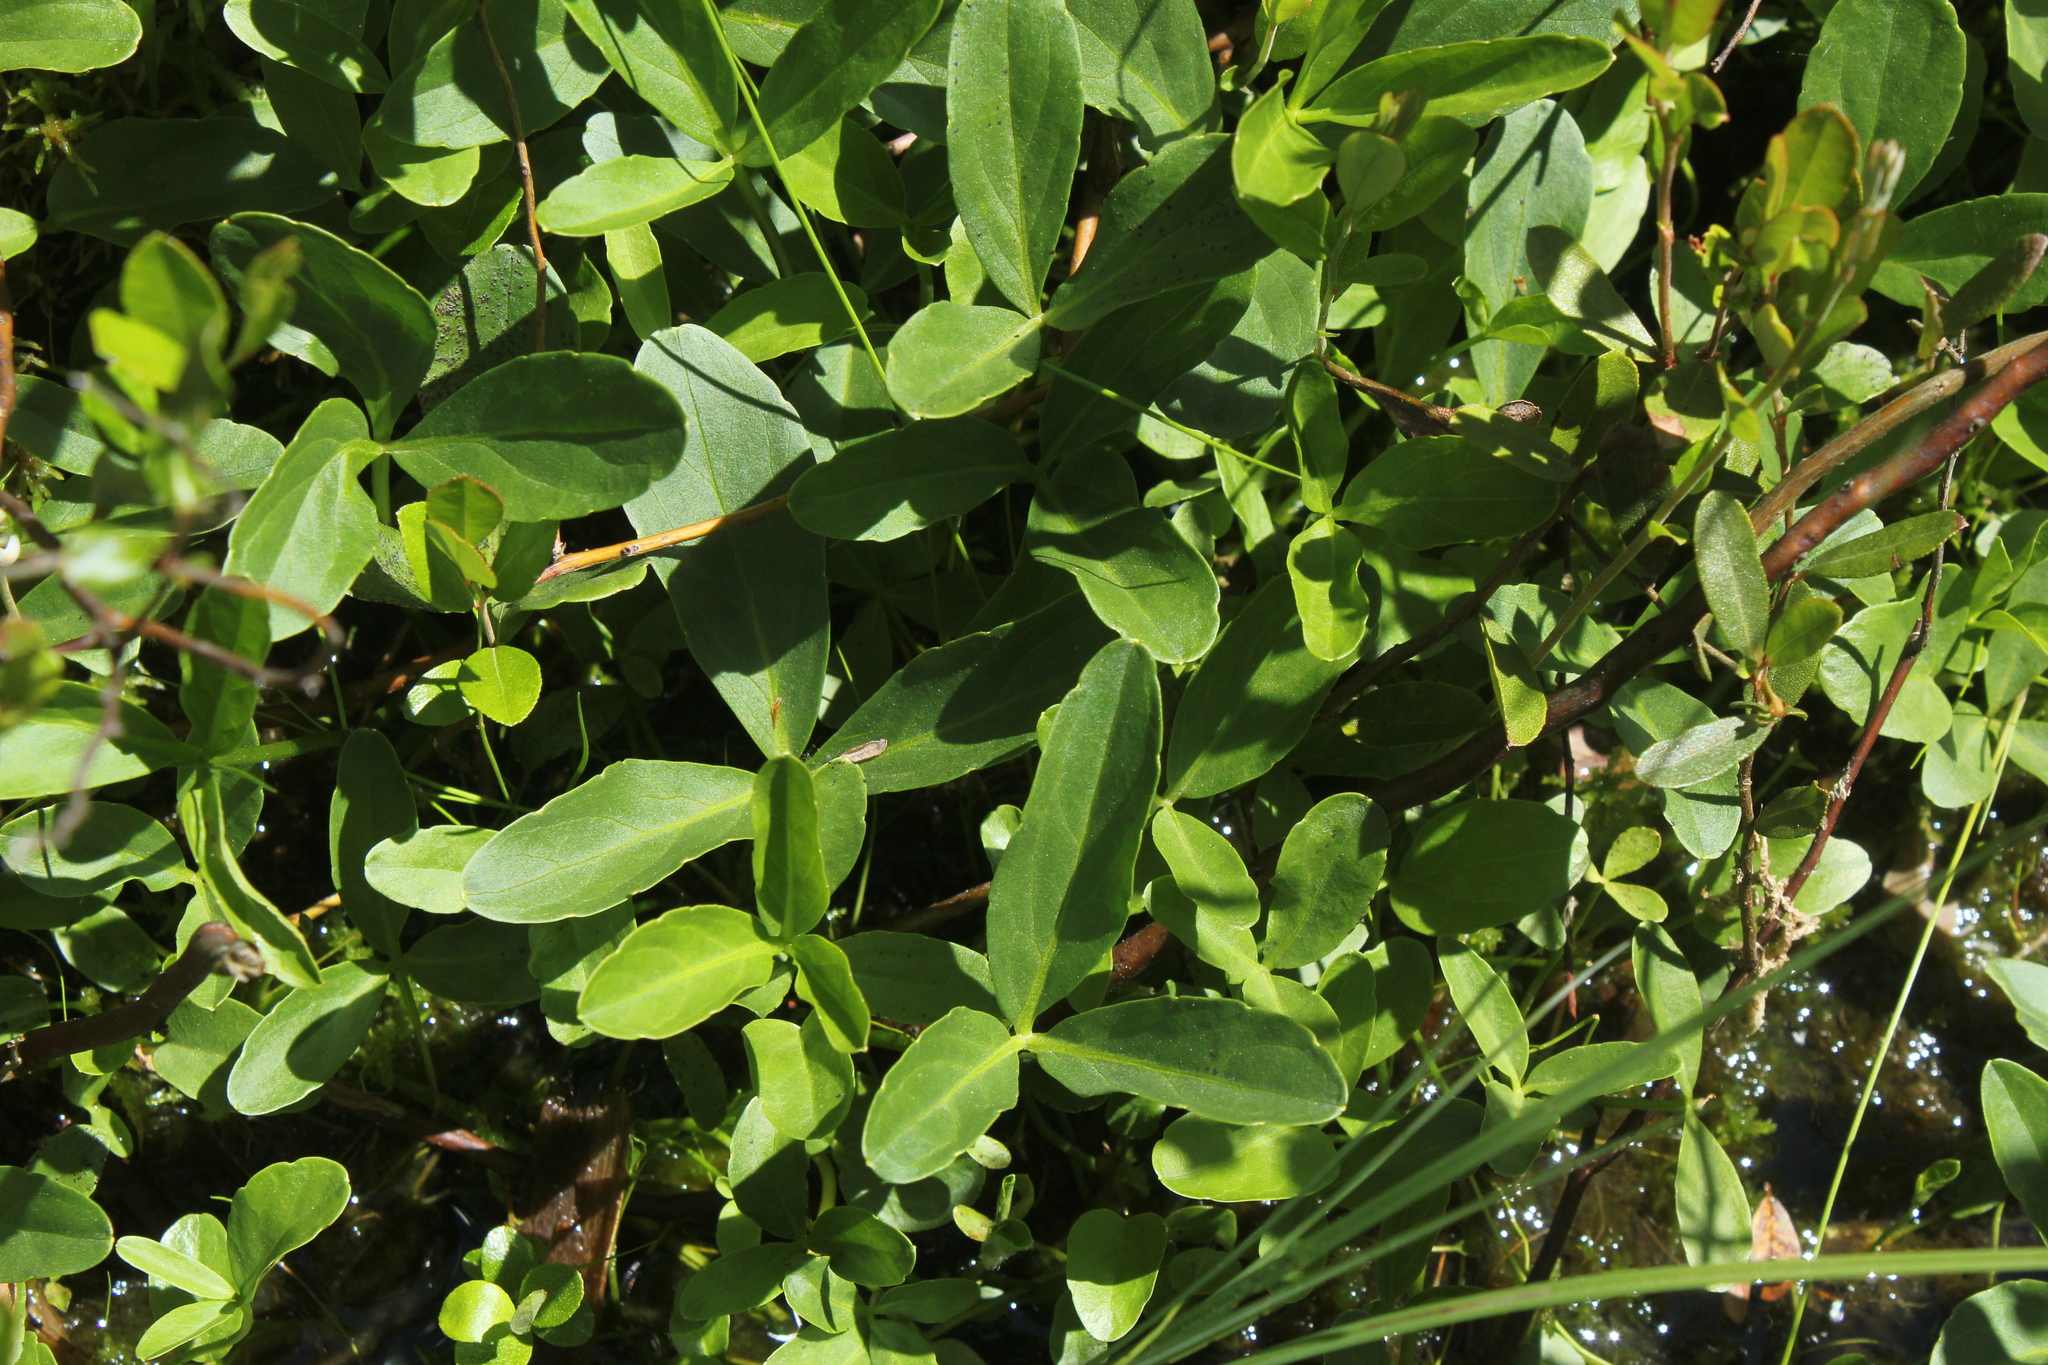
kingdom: Plantae
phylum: Tracheophyta
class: Magnoliopsida
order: Asterales
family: Menyanthaceae
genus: Menyanthes
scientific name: Menyanthes trifoliata
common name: Bogbean
